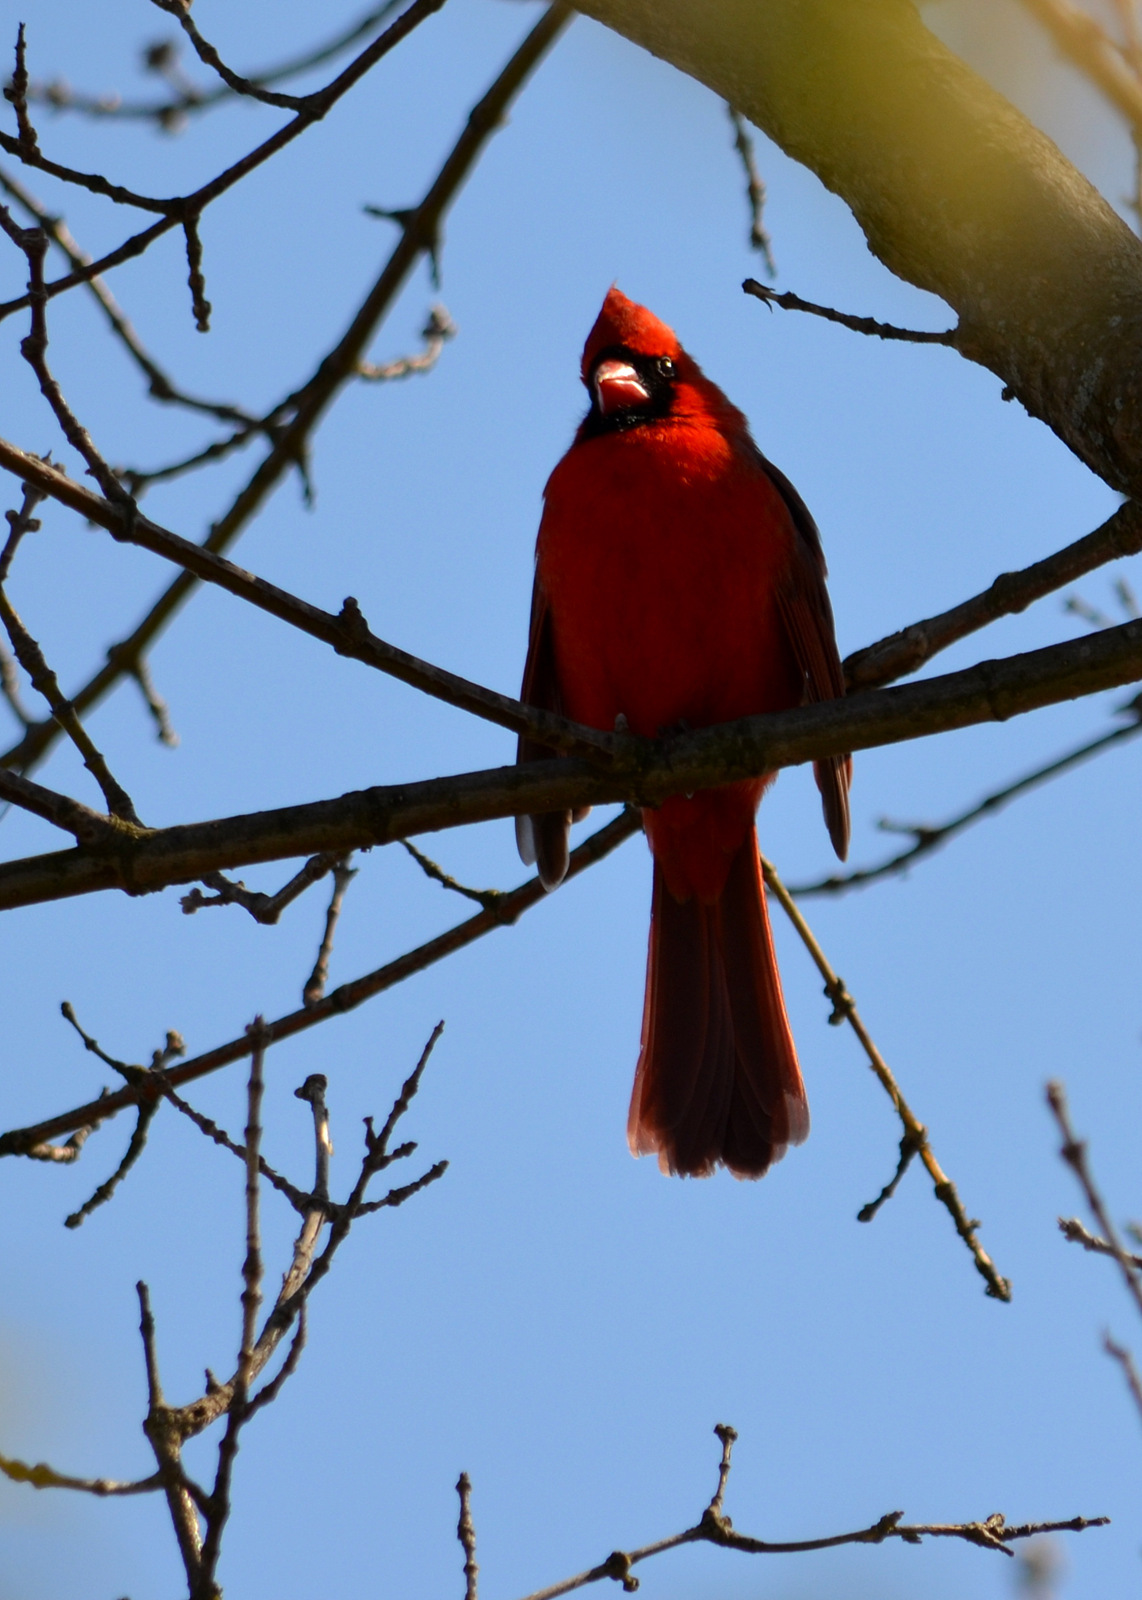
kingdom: Animalia
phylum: Chordata
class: Aves
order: Passeriformes
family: Cardinalidae
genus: Cardinalis
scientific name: Cardinalis cardinalis
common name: Northern cardinal
